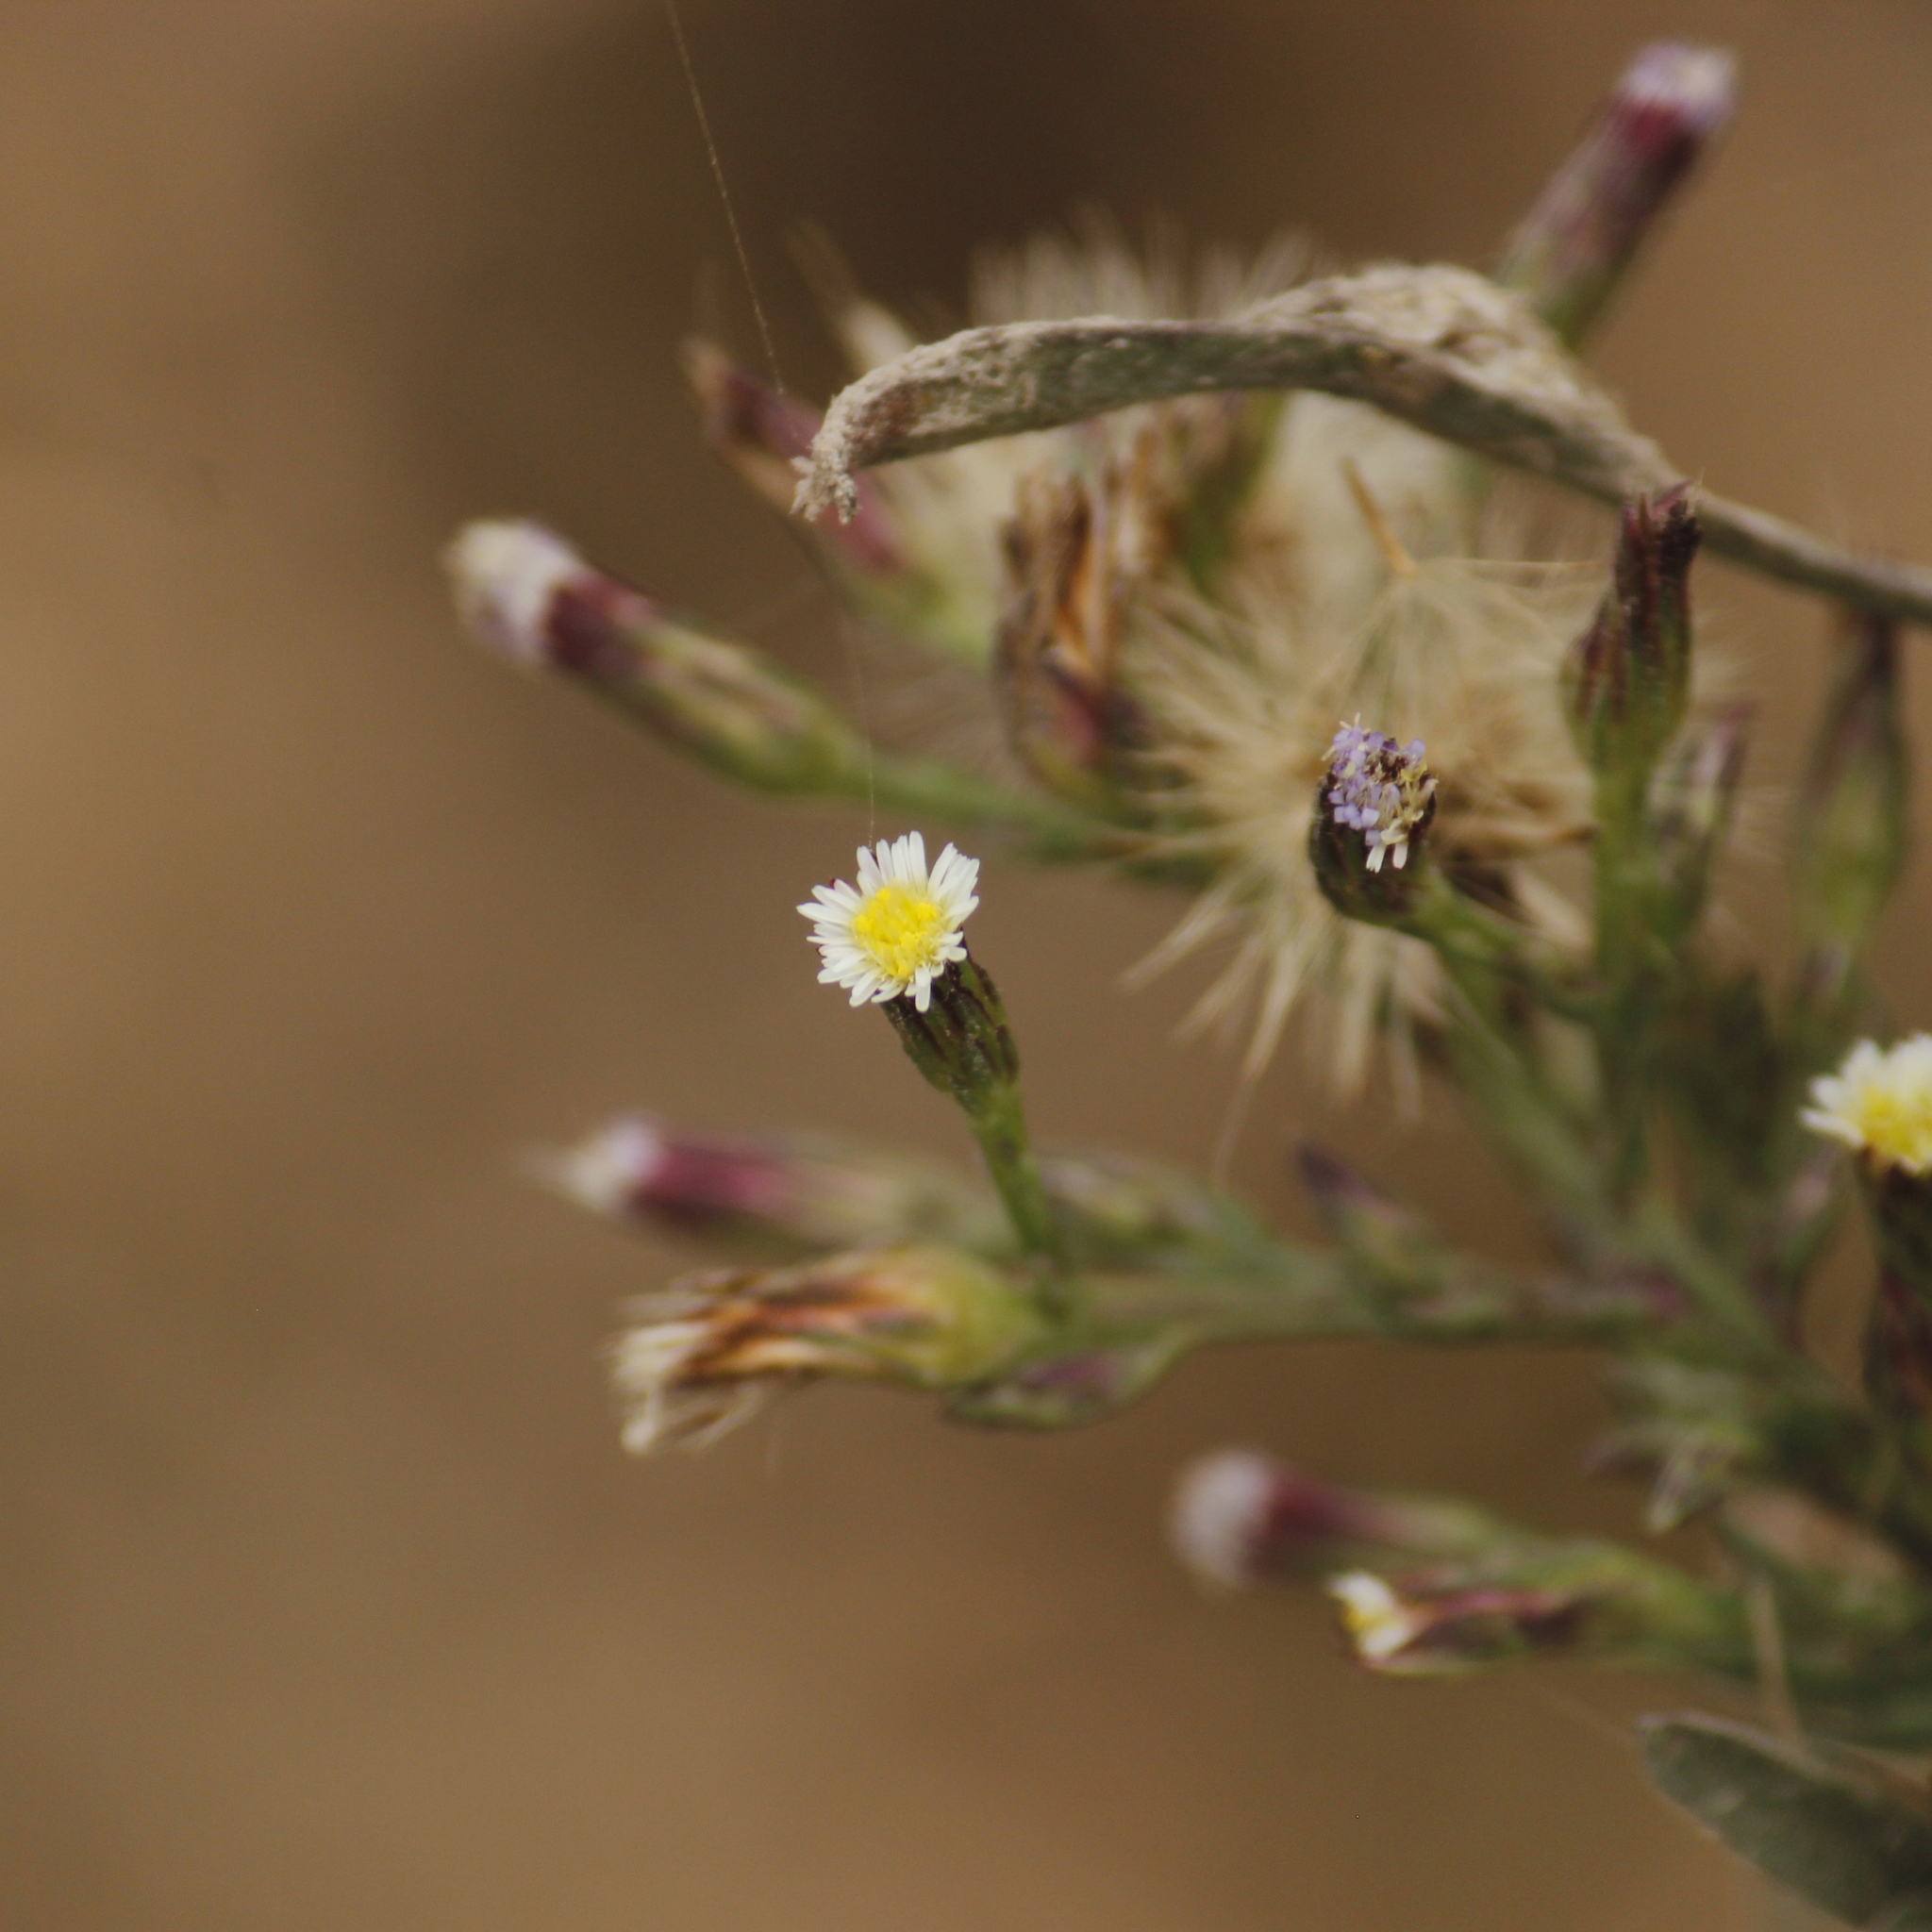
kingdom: Plantae
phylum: Tracheophyta
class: Magnoliopsida
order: Asterales
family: Asteraceae
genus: Symphyotrichum
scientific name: Symphyotrichum subulatum
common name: Annual saltmarsh aster
